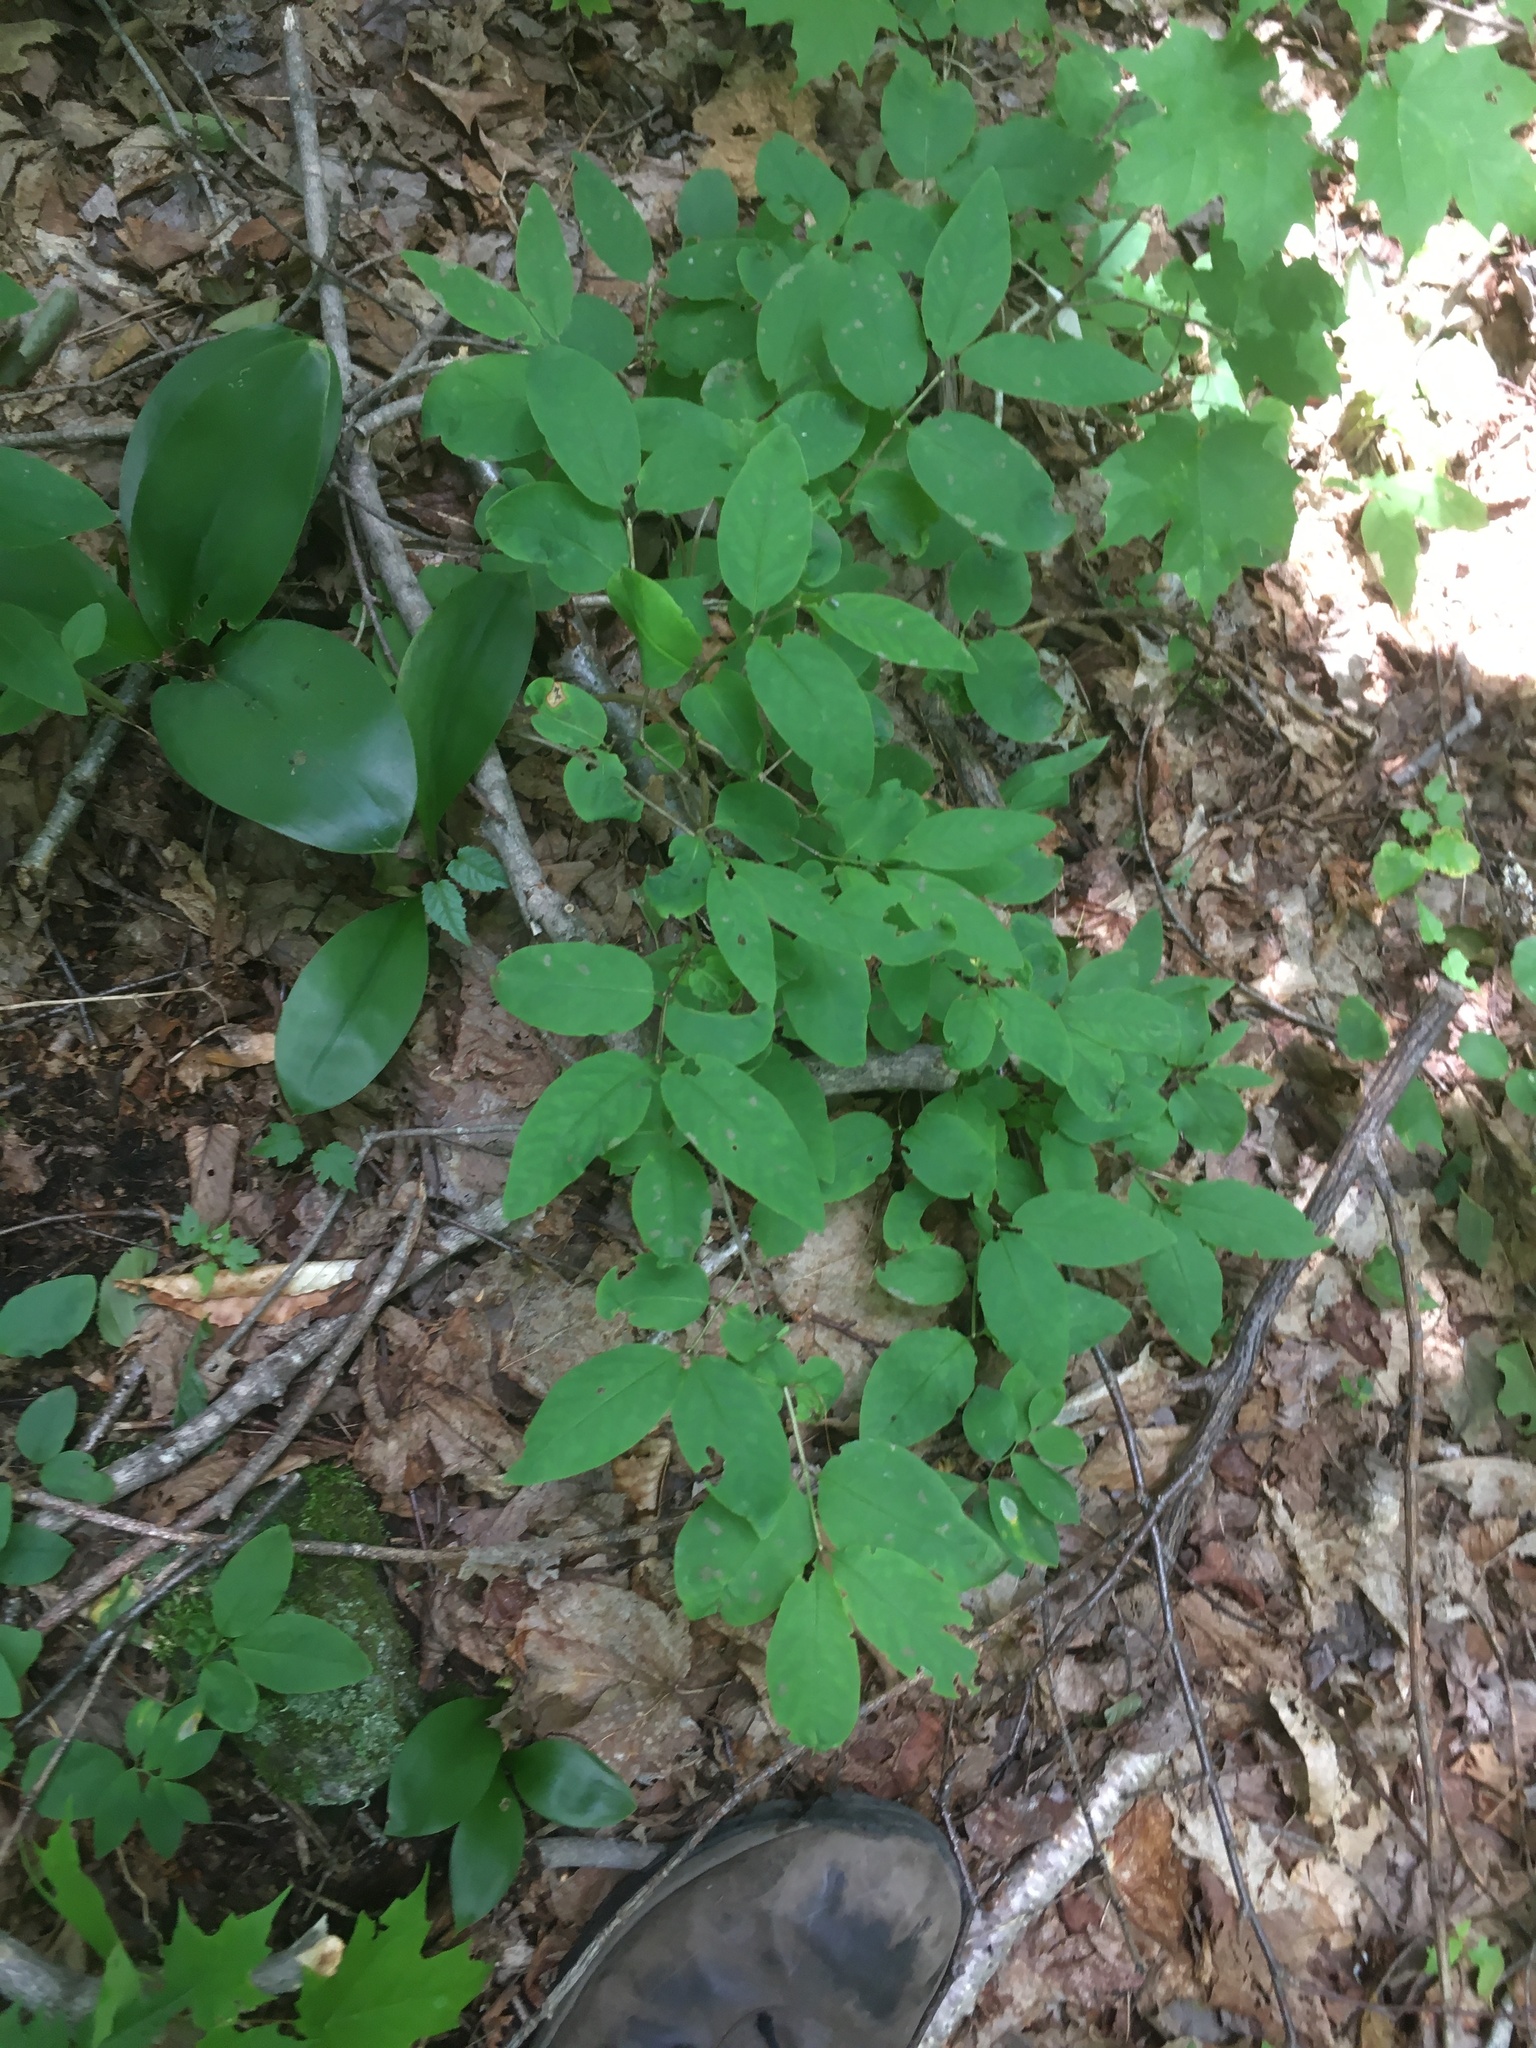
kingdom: Plantae
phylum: Tracheophyta
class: Magnoliopsida
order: Dipsacales
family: Caprifoliaceae
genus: Lonicera
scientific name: Lonicera canadensis
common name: American fly-honeysuckle
